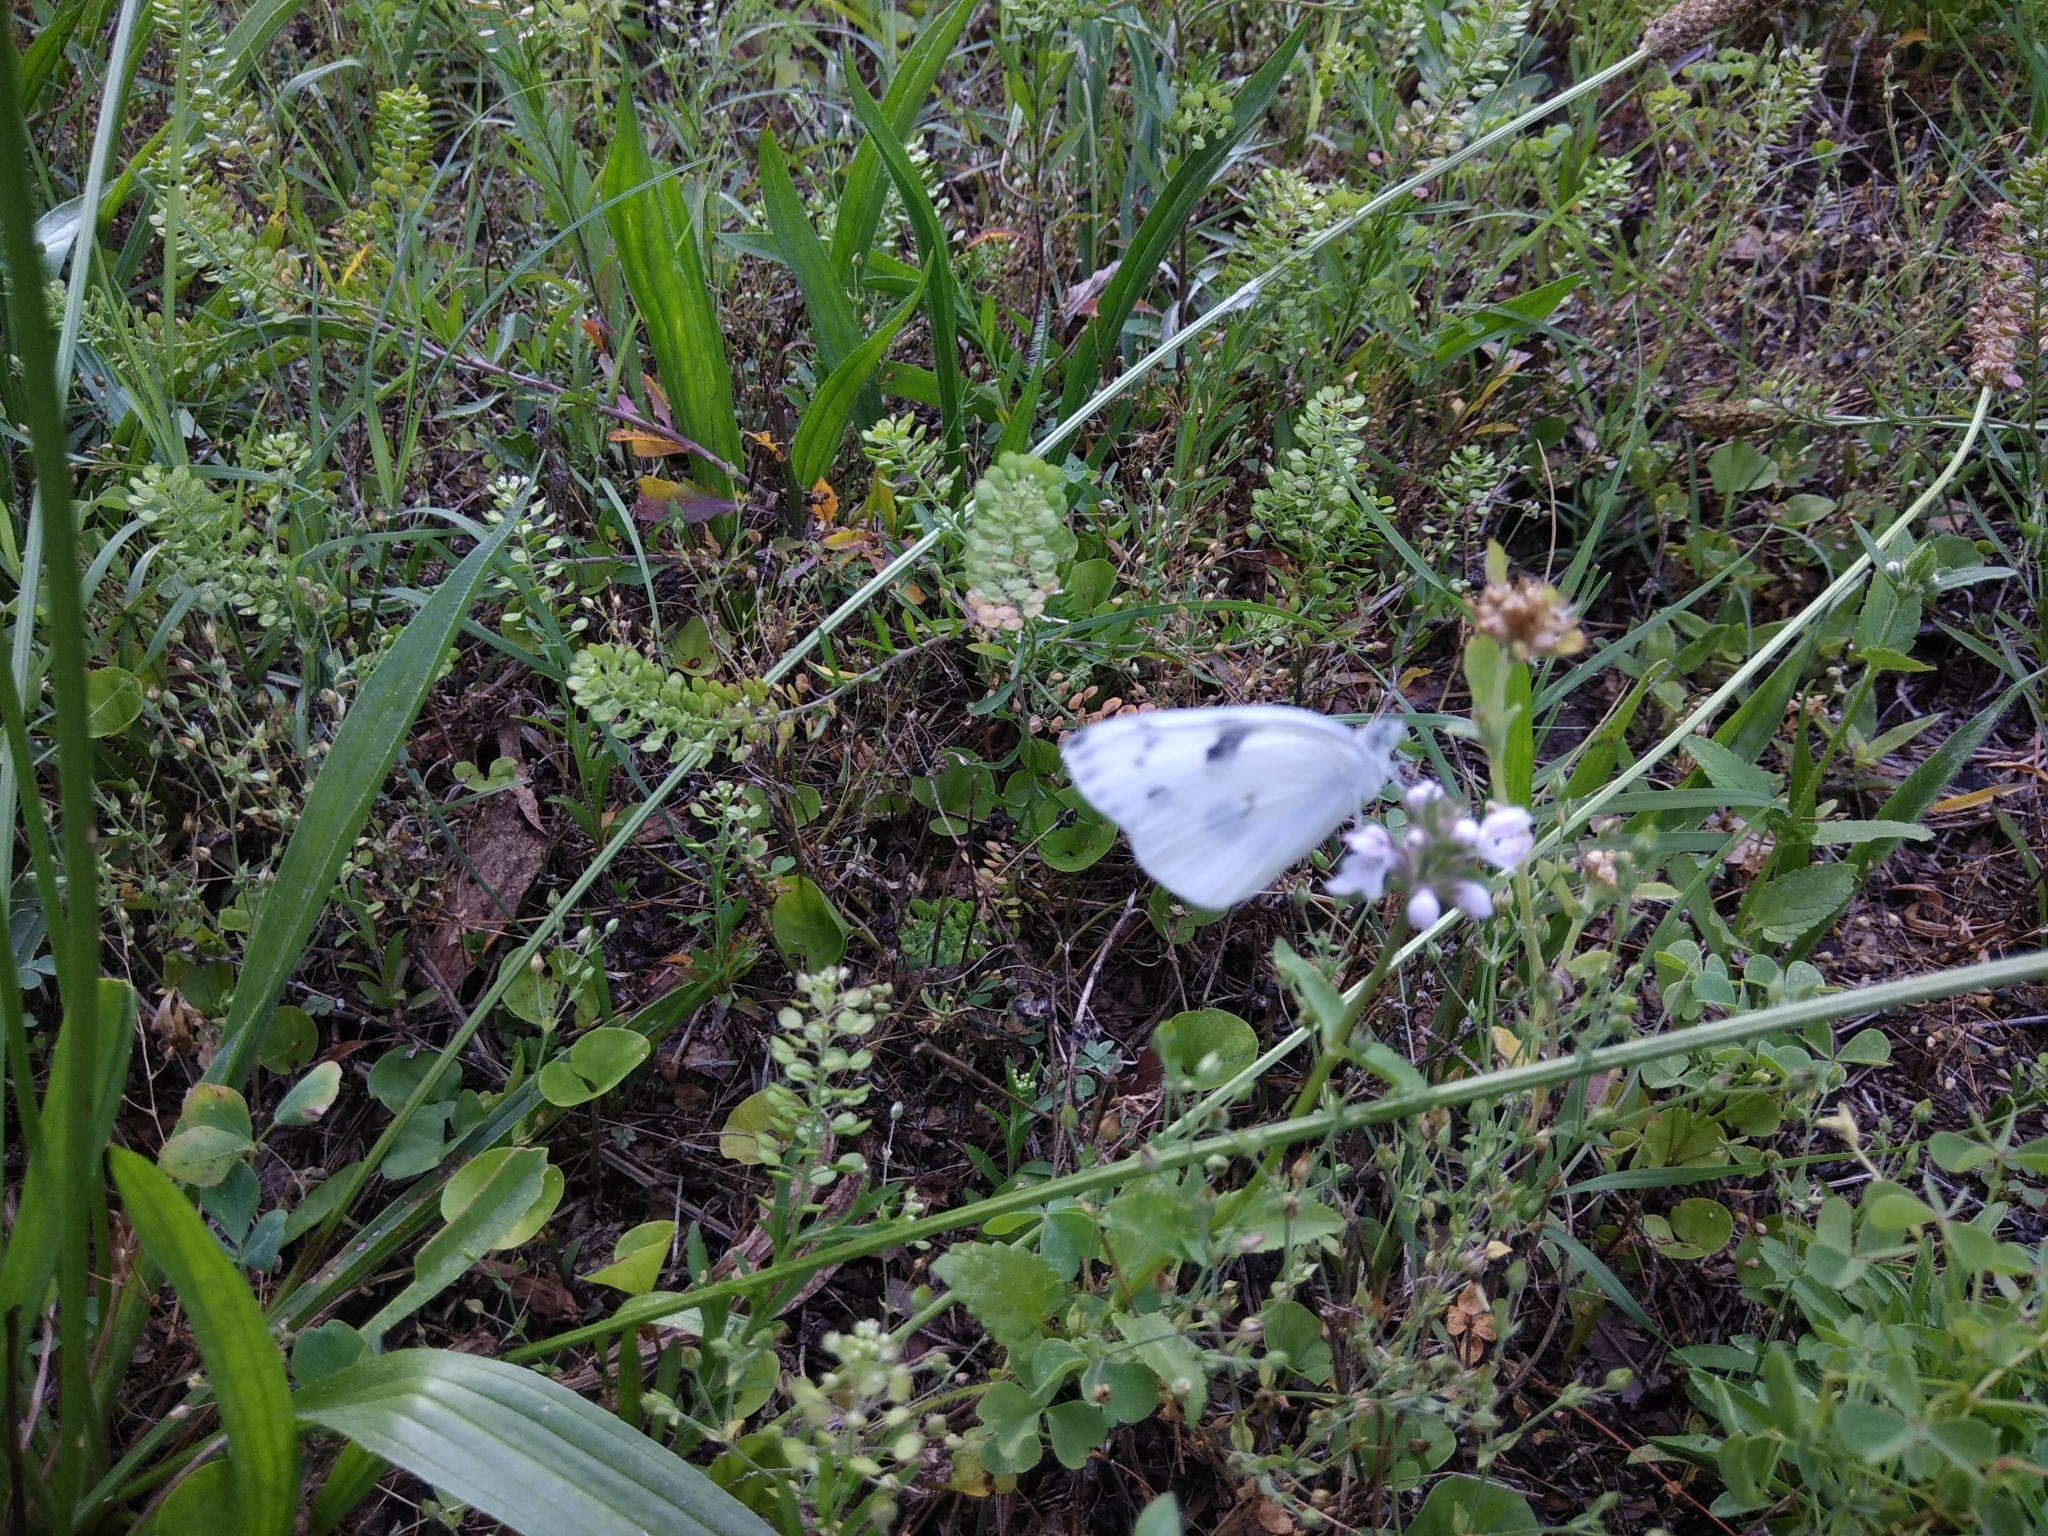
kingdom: Animalia
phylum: Arthropoda
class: Insecta
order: Lepidoptera
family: Pieridae
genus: Pontia
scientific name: Pontia protodice
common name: Checkered white
